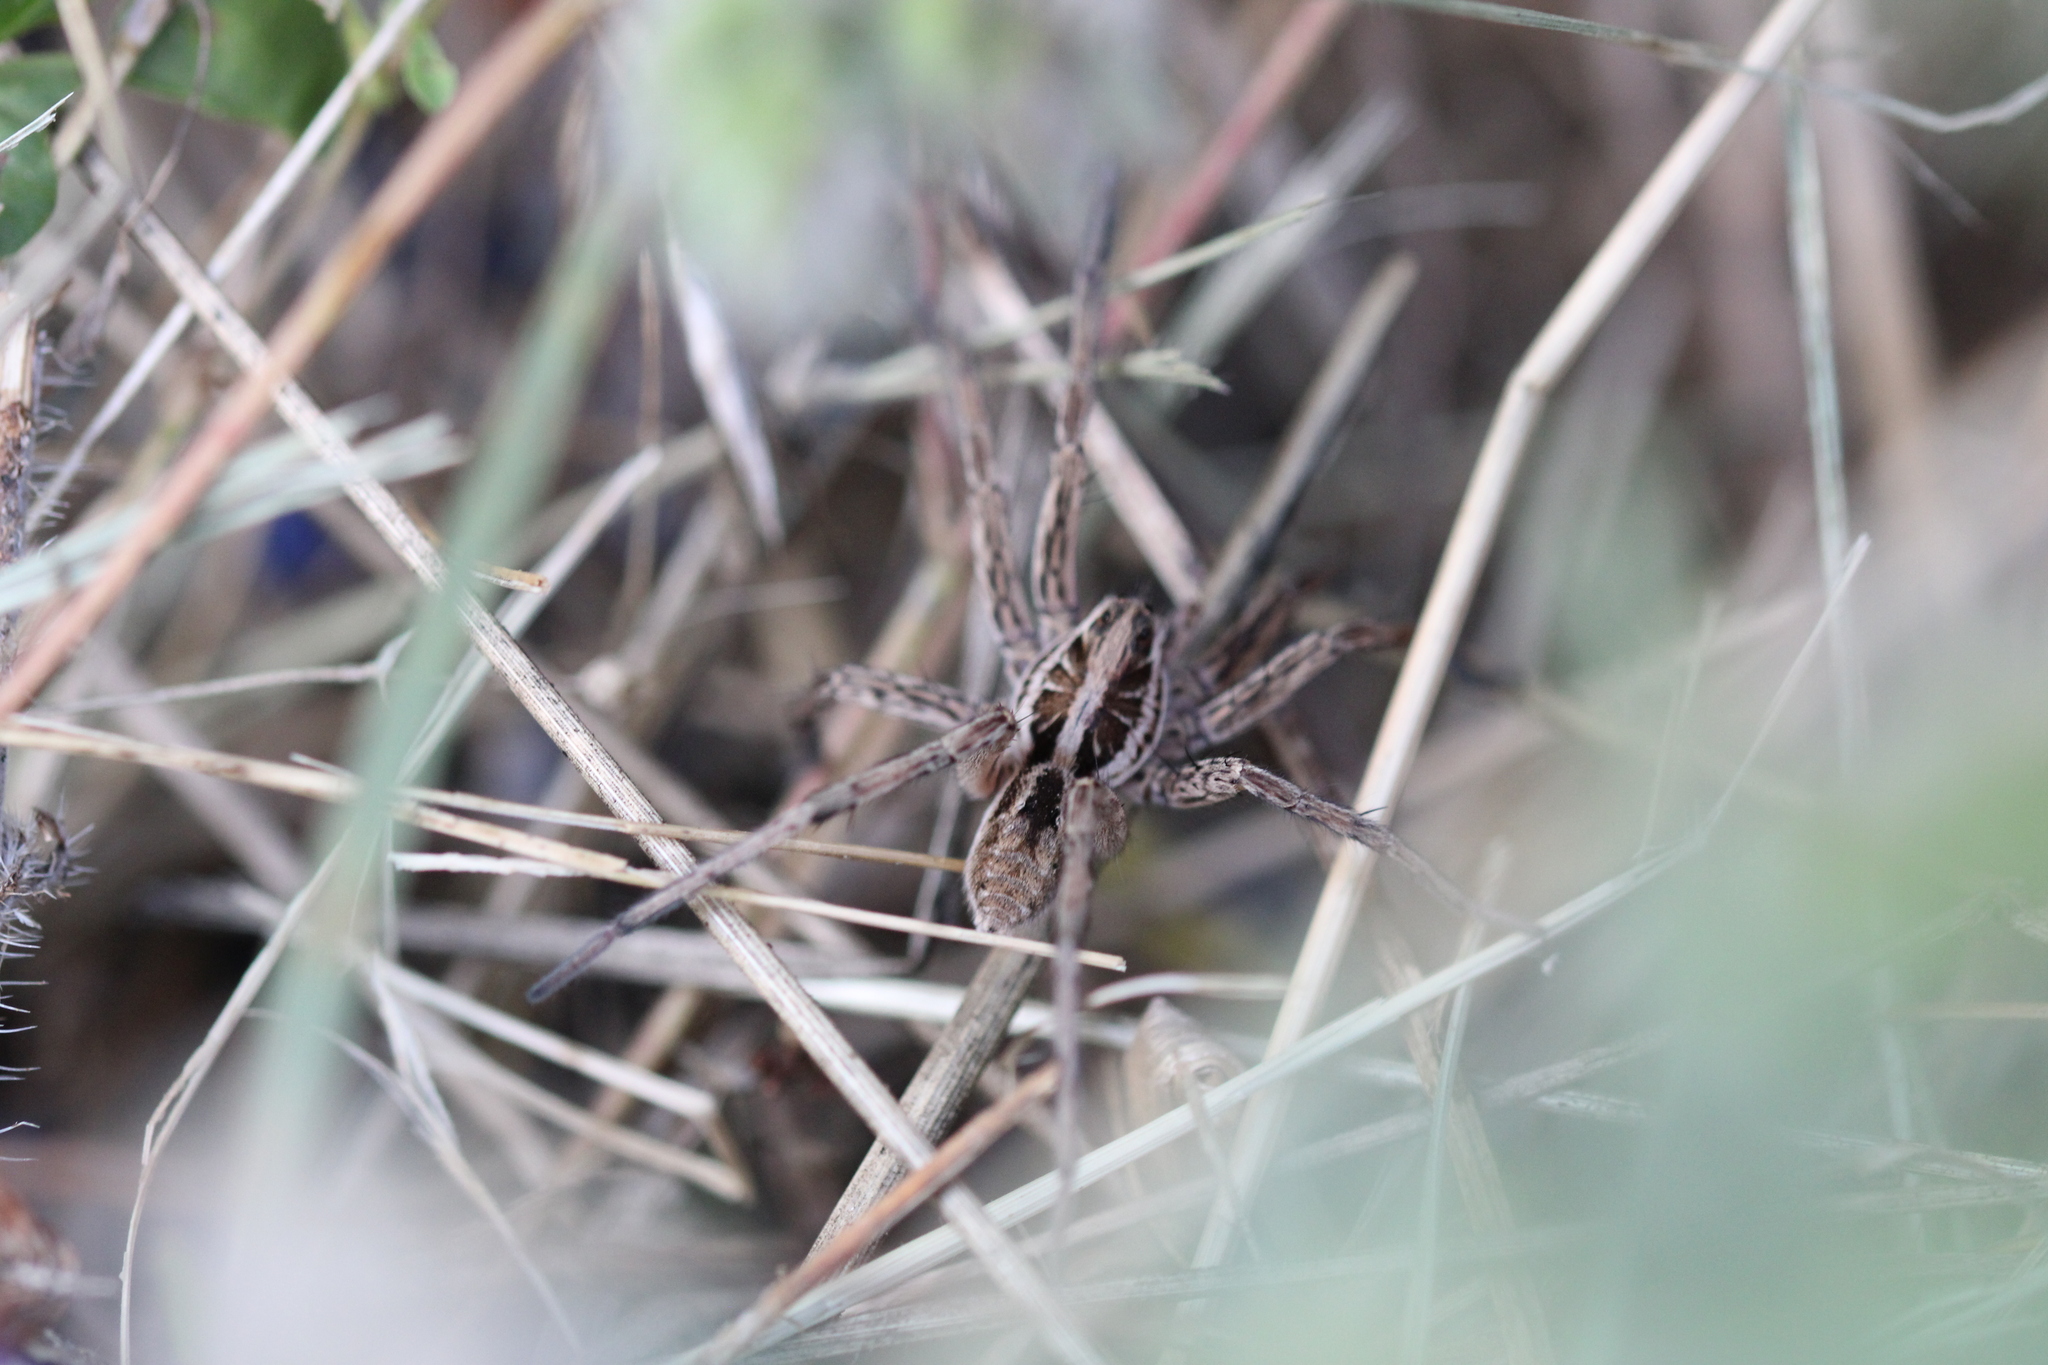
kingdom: Animalia
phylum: Arthropoda
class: Arachnida
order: Araneae
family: Lycosidae
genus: Hogna
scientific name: Hogna radiata
